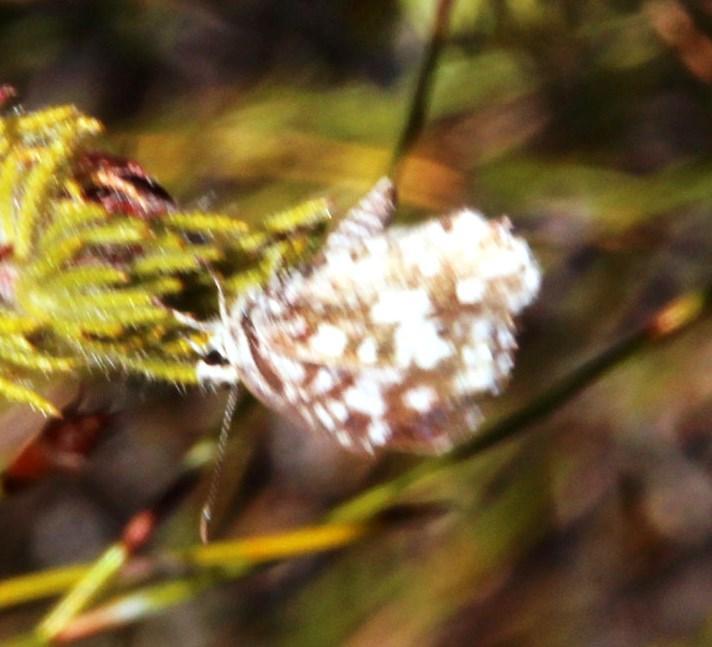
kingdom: Animalia
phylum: Arthropoda
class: Insecta
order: Lepidoptera
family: Lycaenidae
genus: Tarucus
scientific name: Tarucus thespis
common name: Vivid dotted blue
